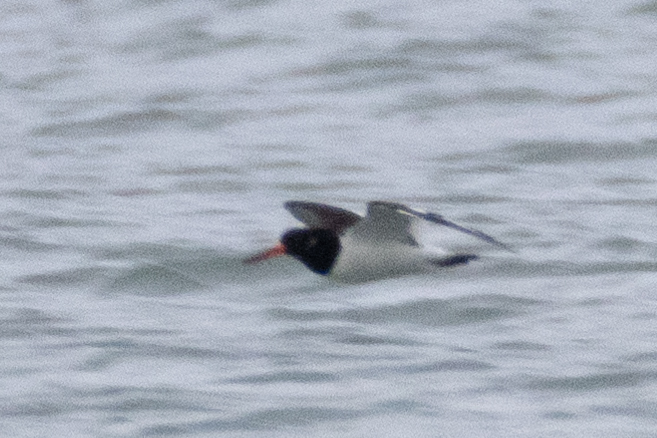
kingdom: Animalia
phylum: Chordata
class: Aves
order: Charadriiformes
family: Haematopodidae
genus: Haematopus
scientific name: Haematopus ostralegus
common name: Eurasian oystercatcher
